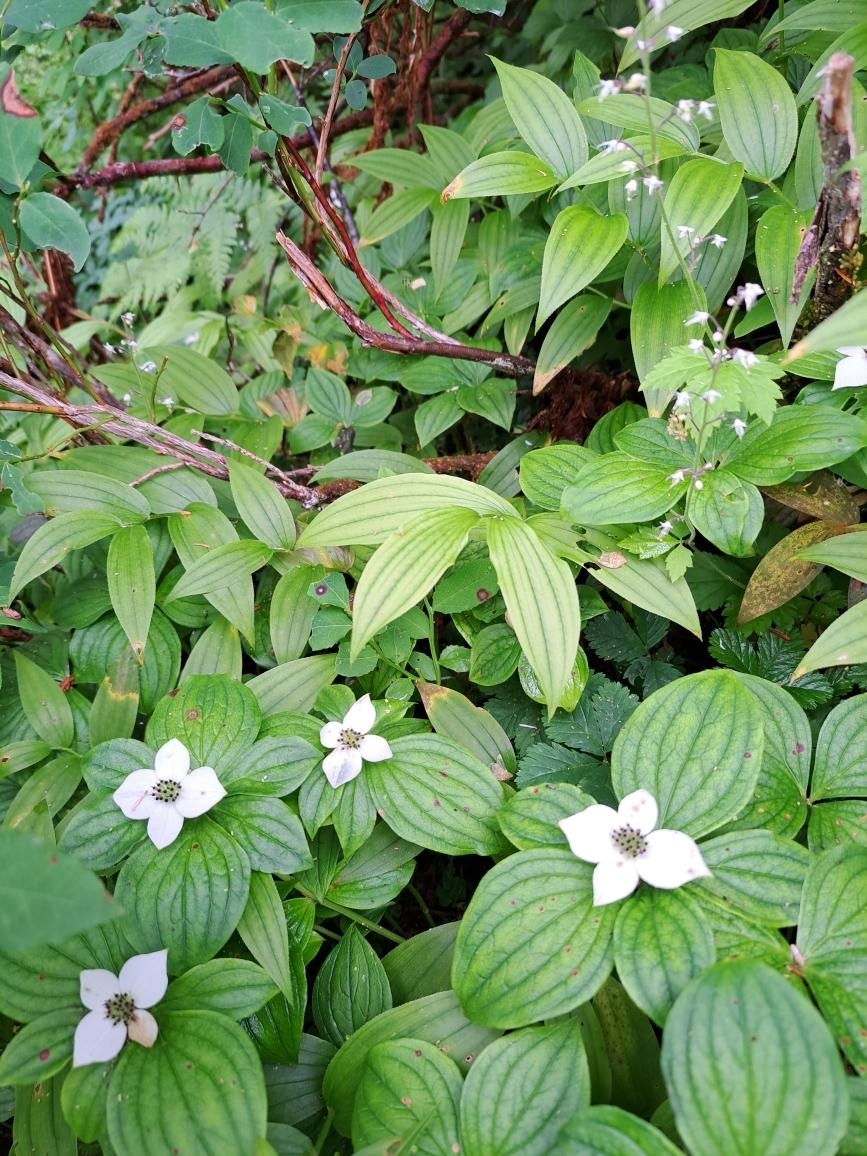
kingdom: Plantae
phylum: Tracheophyta
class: Magnoliopsida
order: Cornales
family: Cornaceae
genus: Cornus
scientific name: Cornus unalaschkensis
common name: Alaska bunchberry
